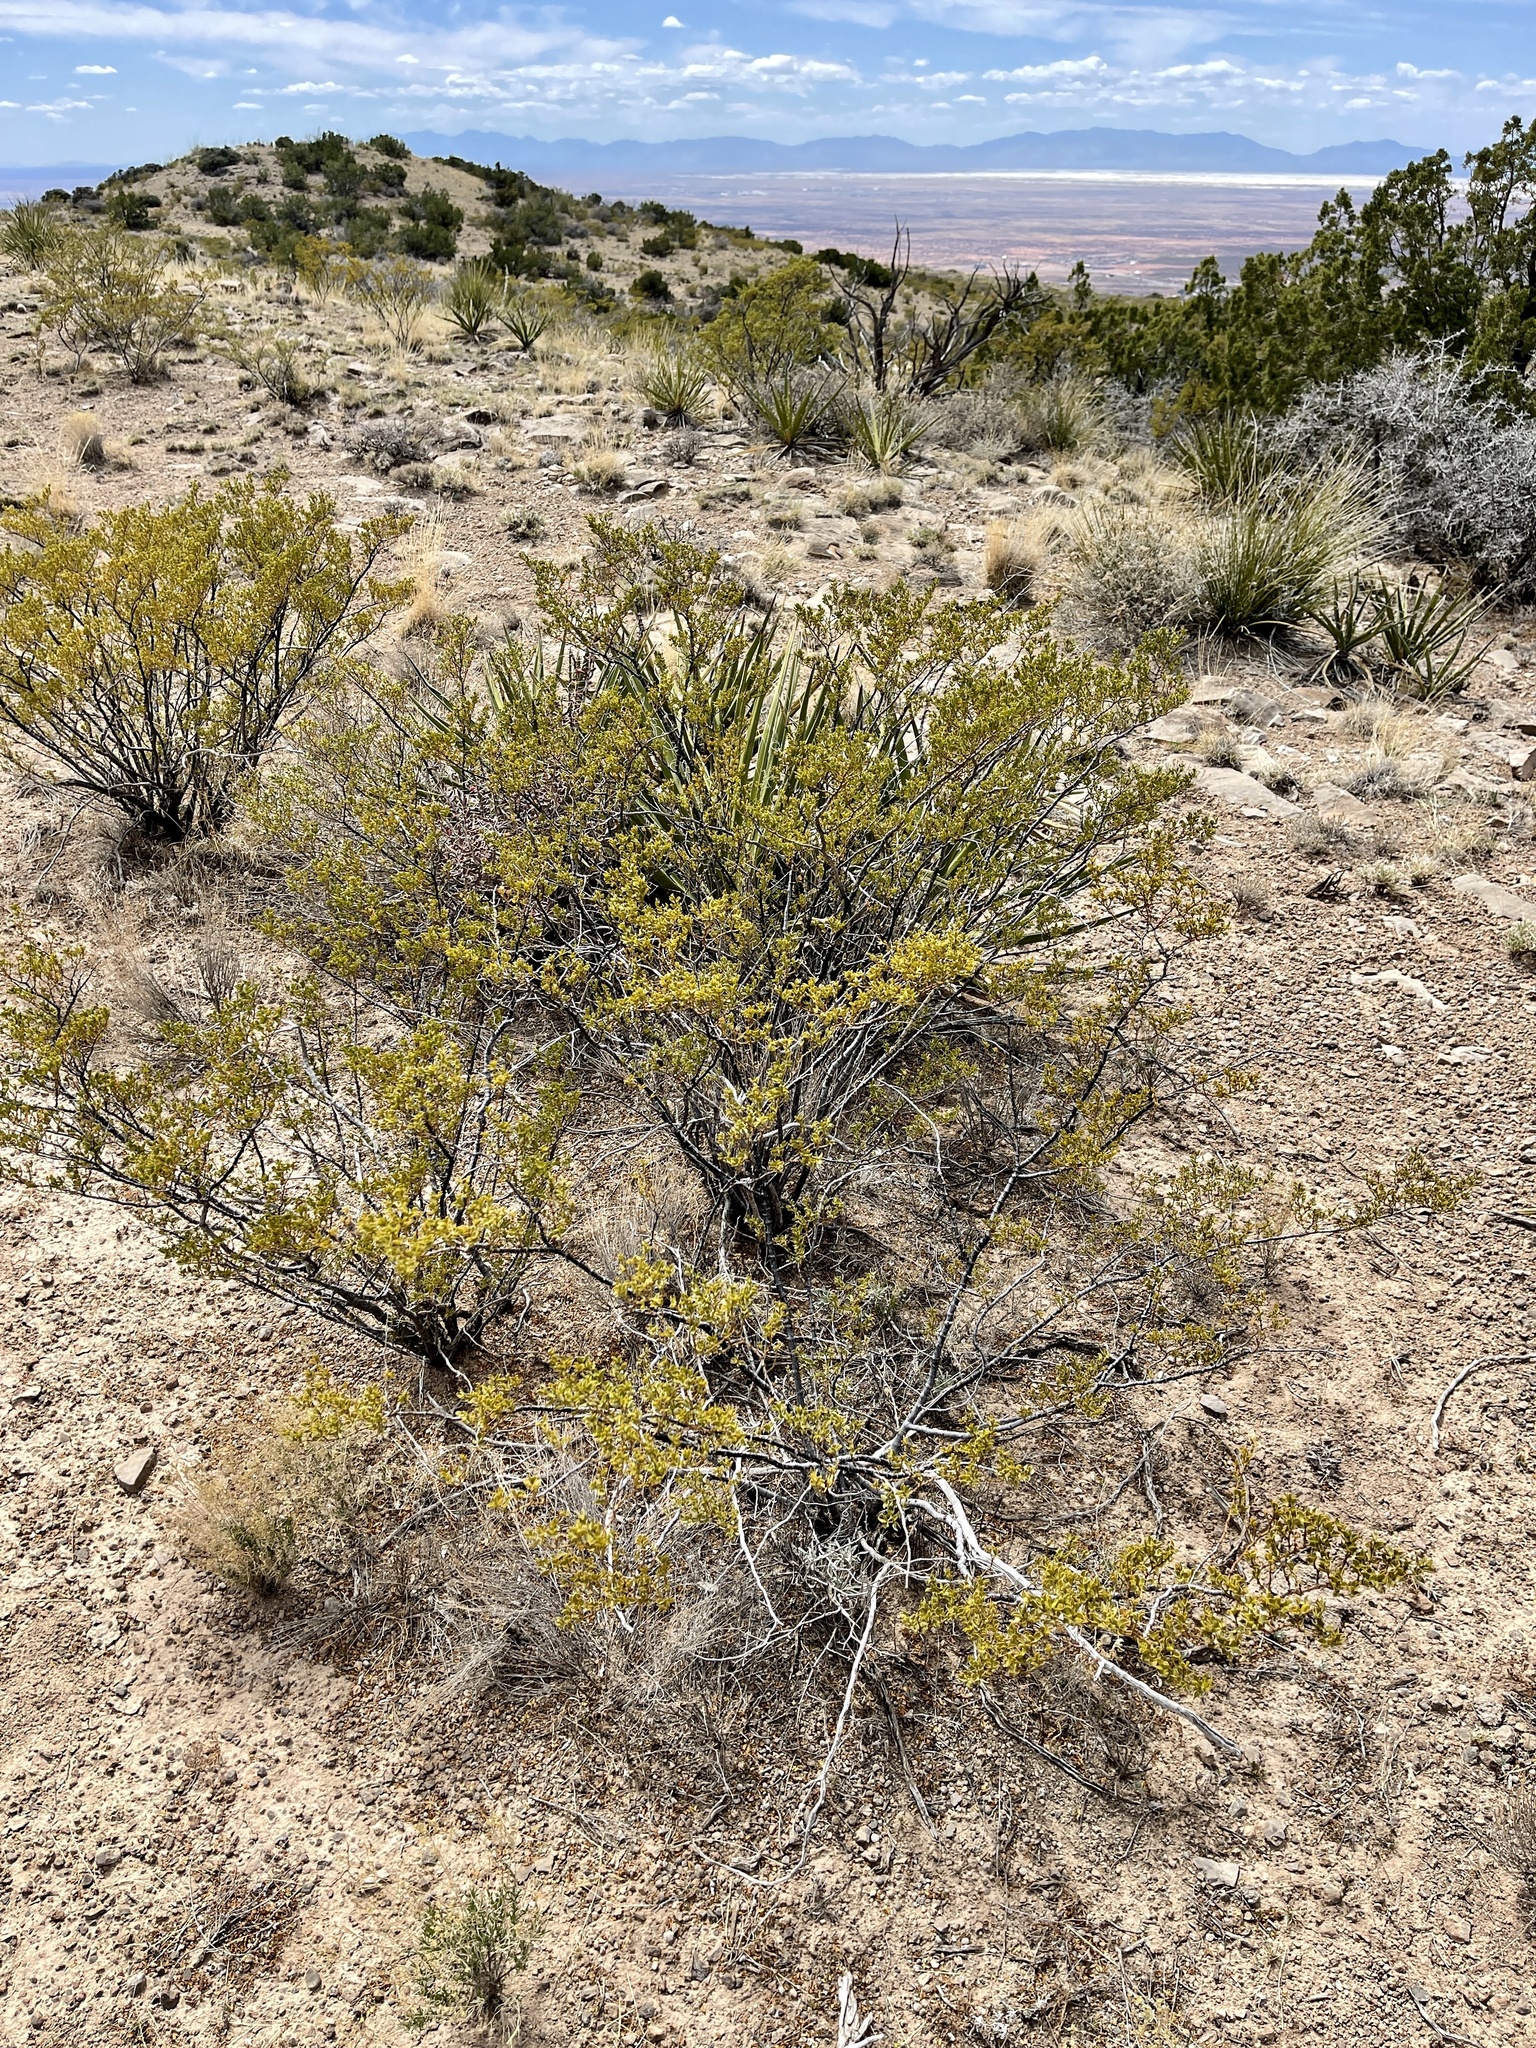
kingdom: Plantae
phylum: Tracheophyta
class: Magnoliopsida
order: Zygophyllales
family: Zygophyllaceae
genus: Larrea
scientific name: Larrea tridentata
